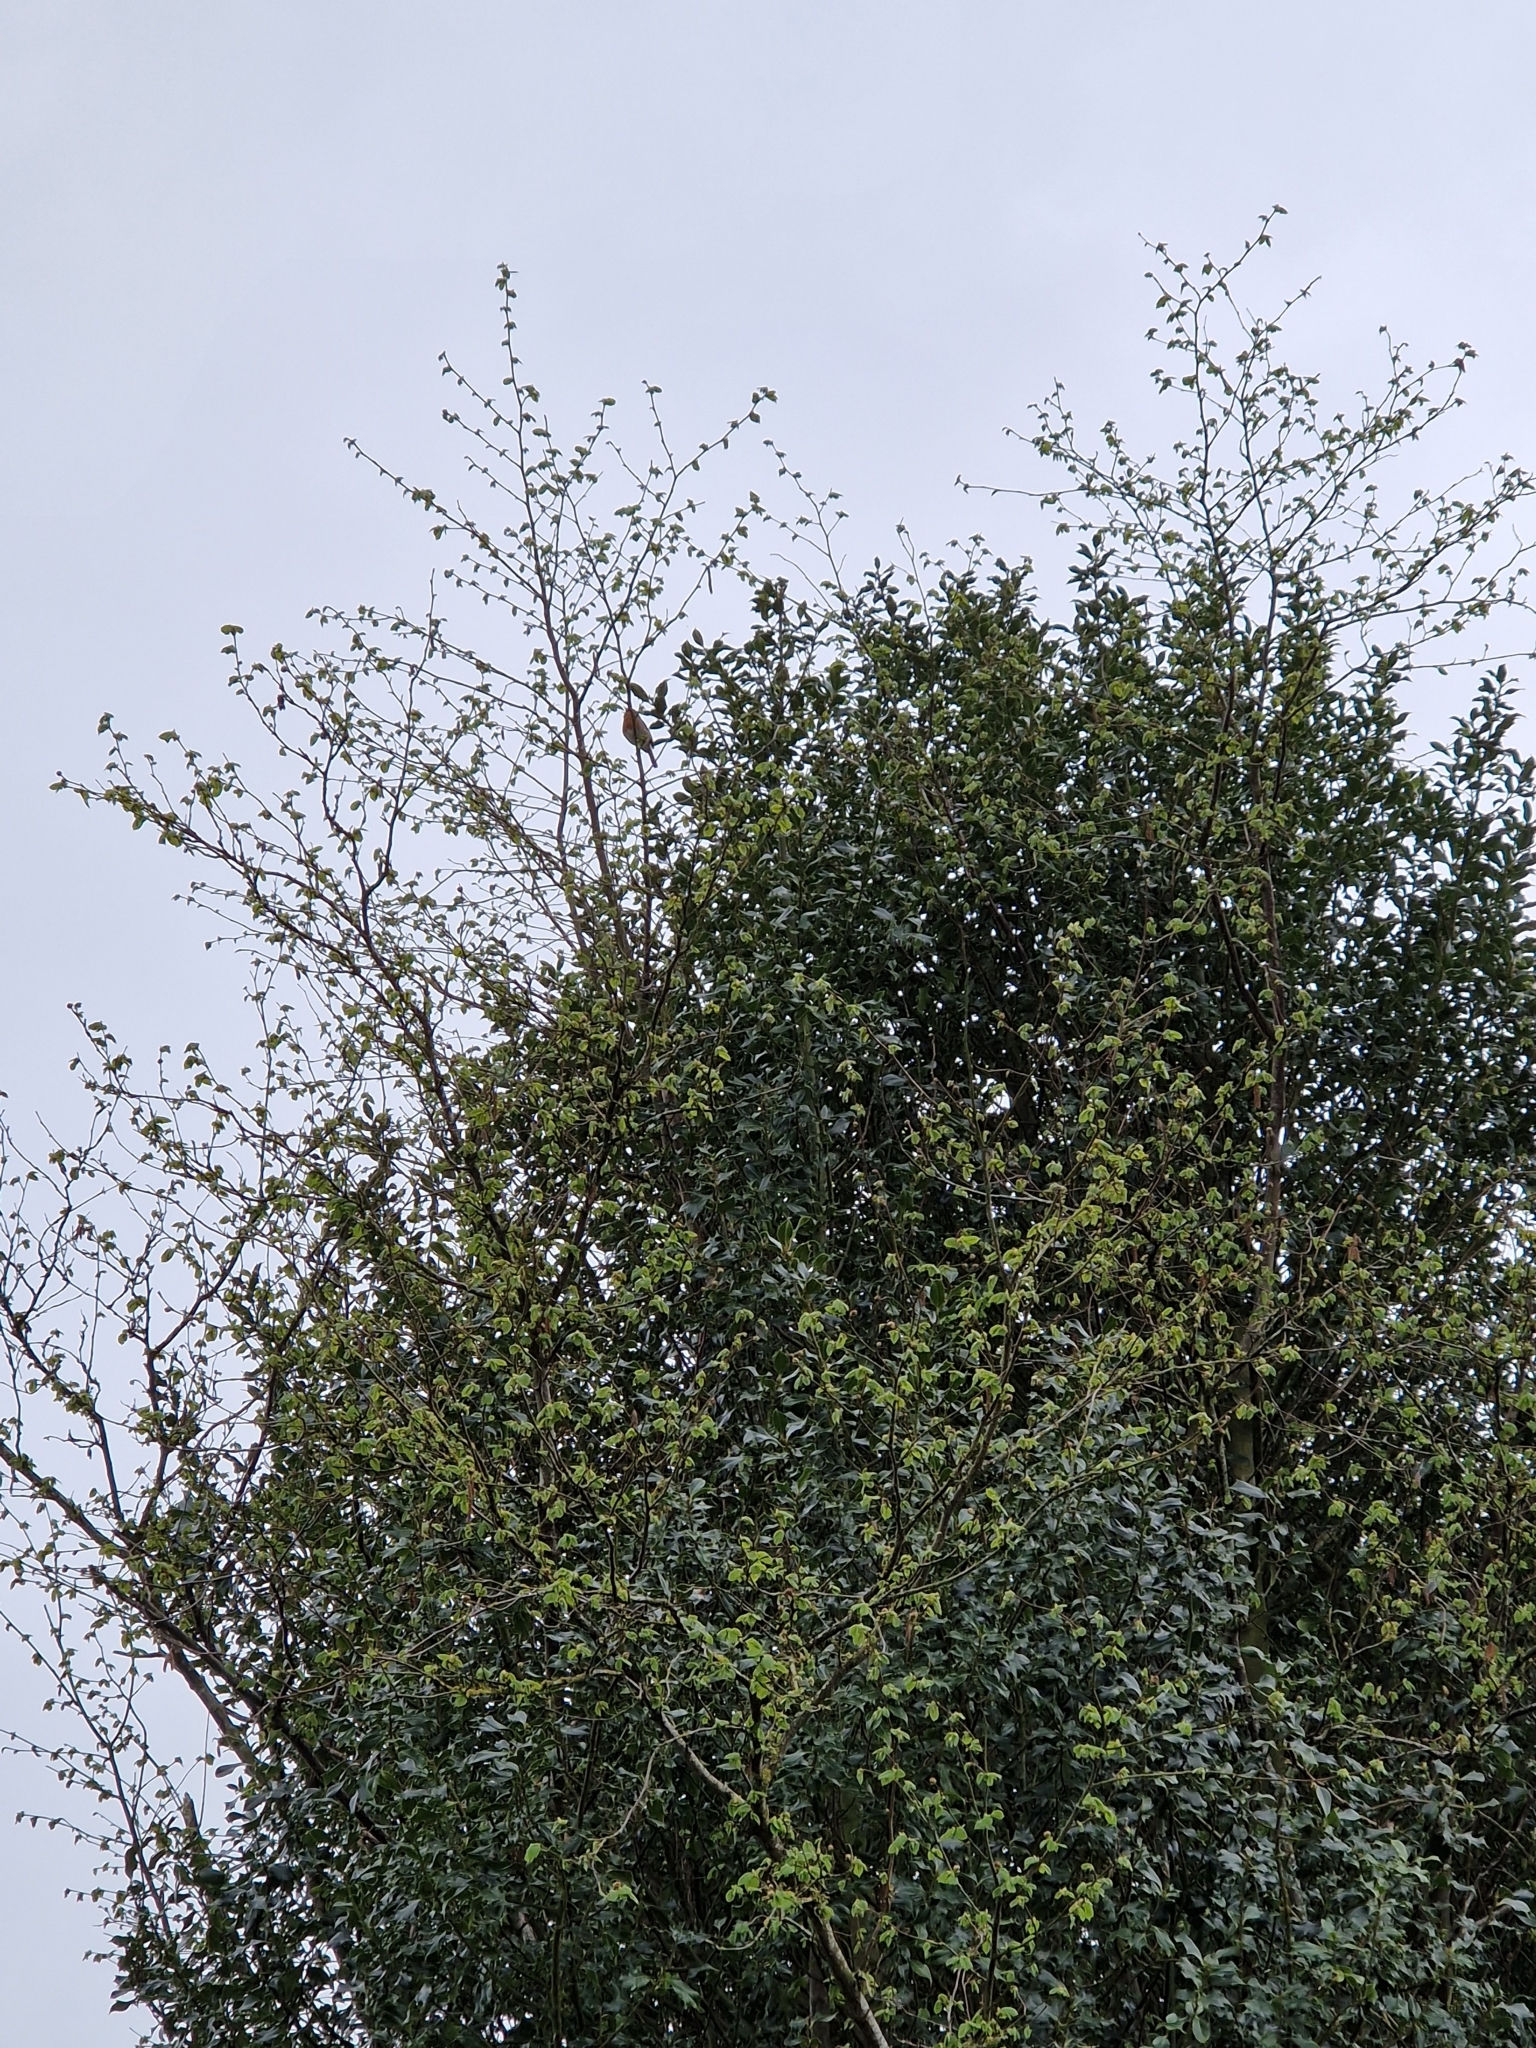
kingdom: Animalia
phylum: Chordata
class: Aves
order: Passeriformes
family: Muscicapidae
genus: Erithacus
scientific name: Erithacus rubecula
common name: European robin
